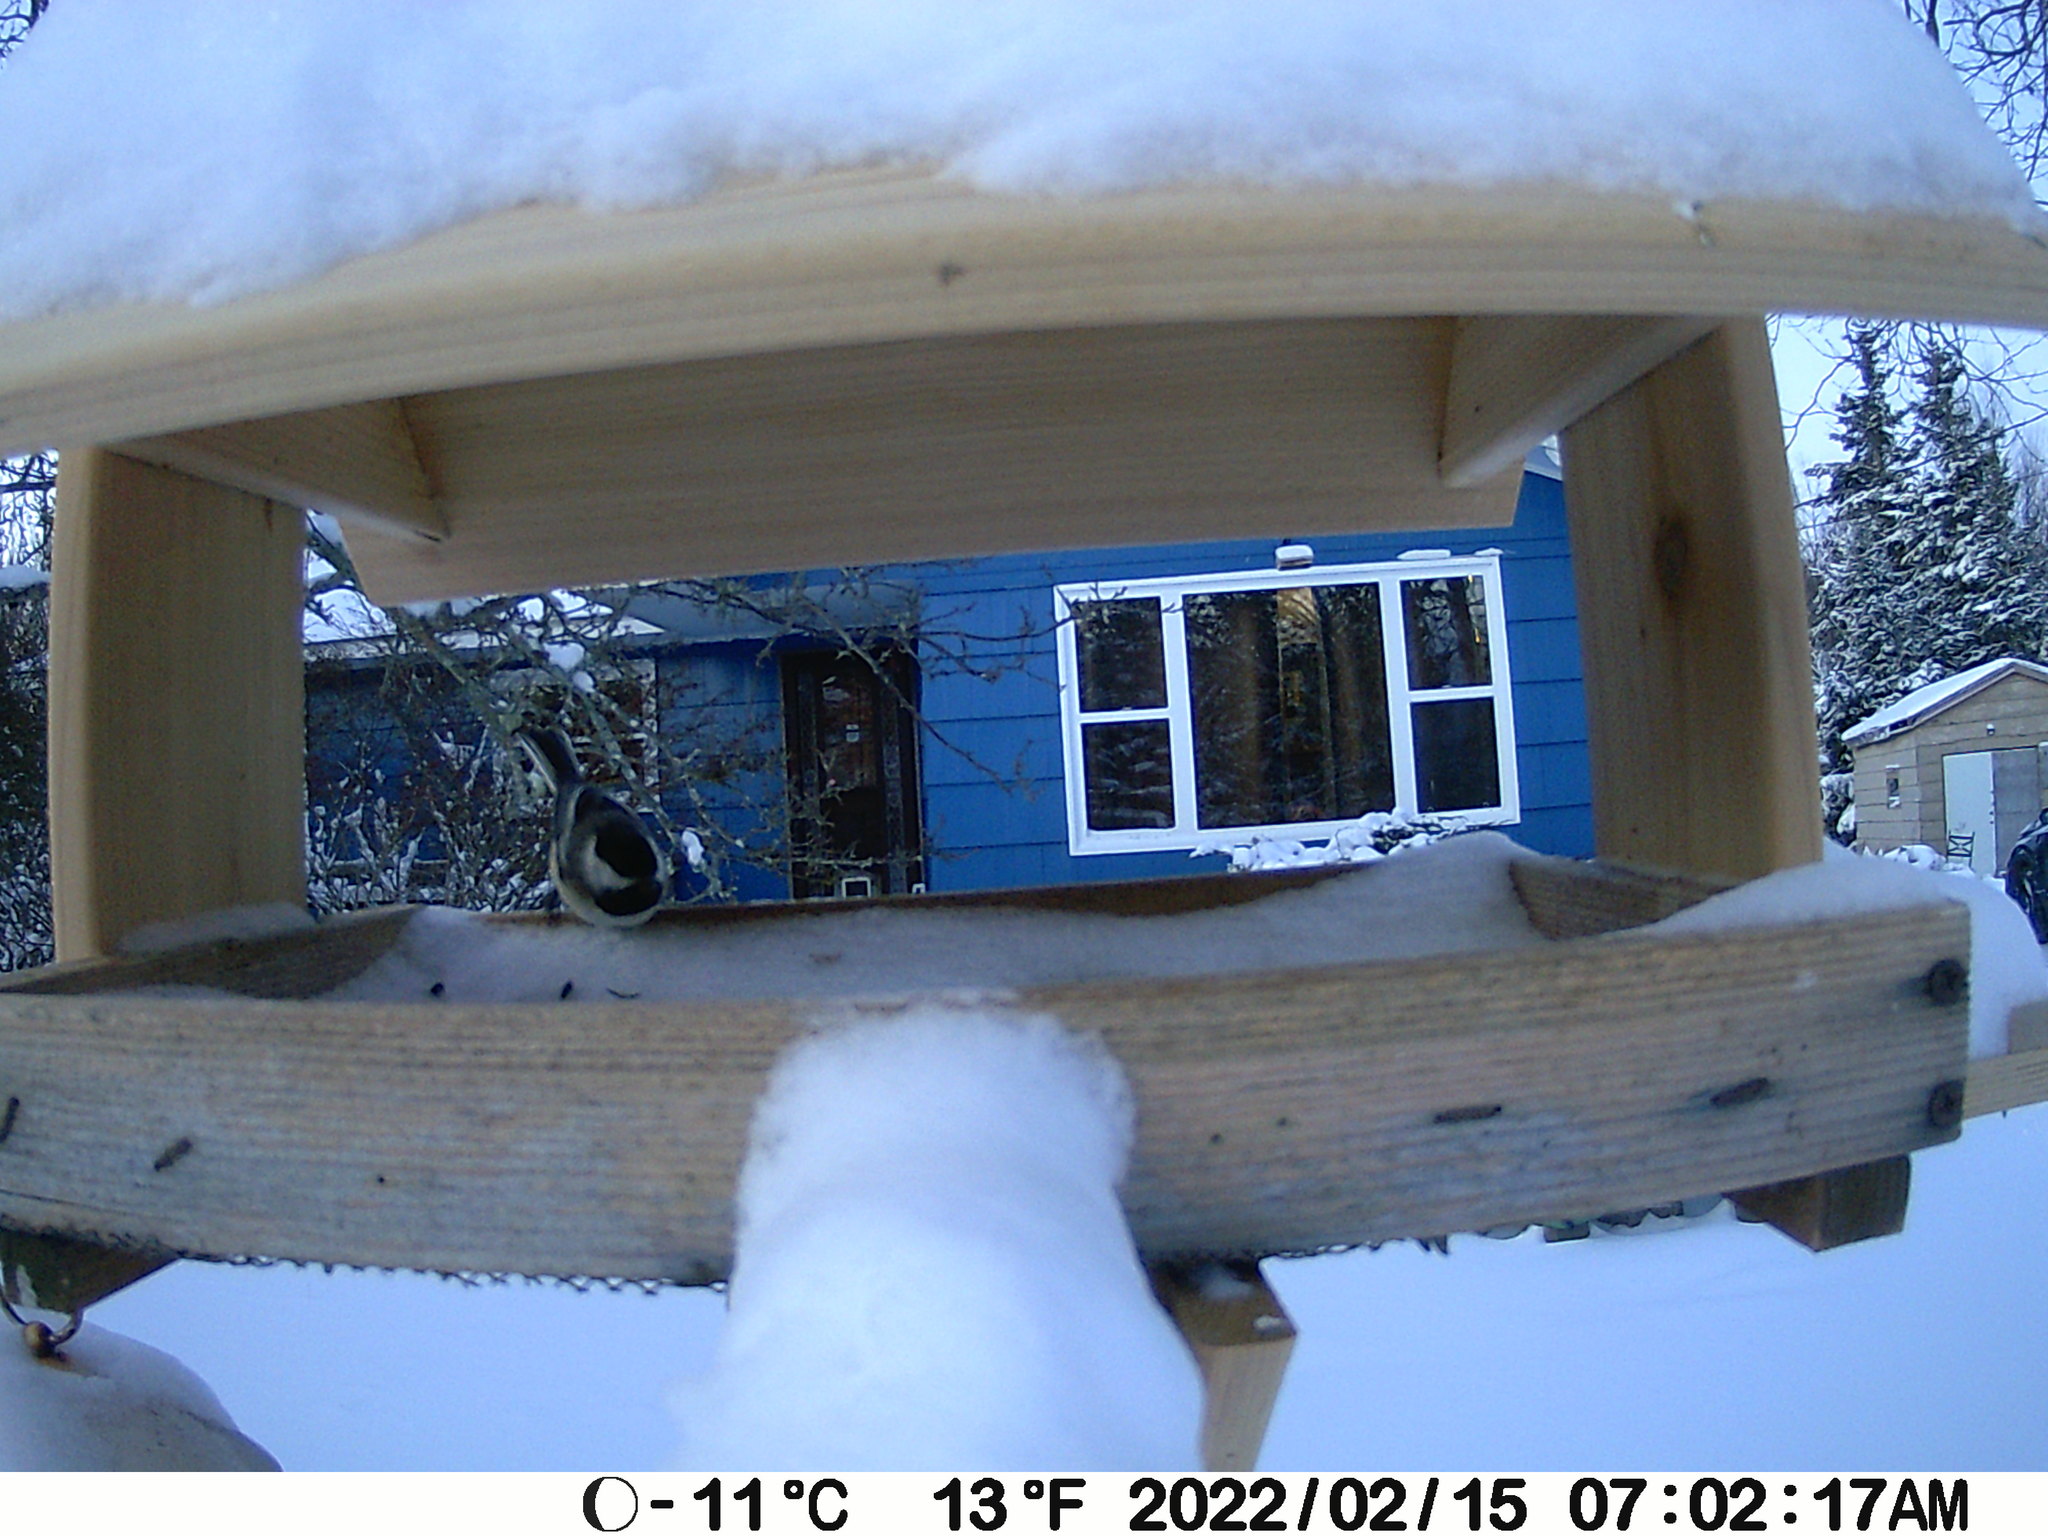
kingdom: Animalia
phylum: Chordata
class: Aves
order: Passeriformes
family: Paridae
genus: Poecile
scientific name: Poecile atricapillus
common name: Black-capped chickadee
